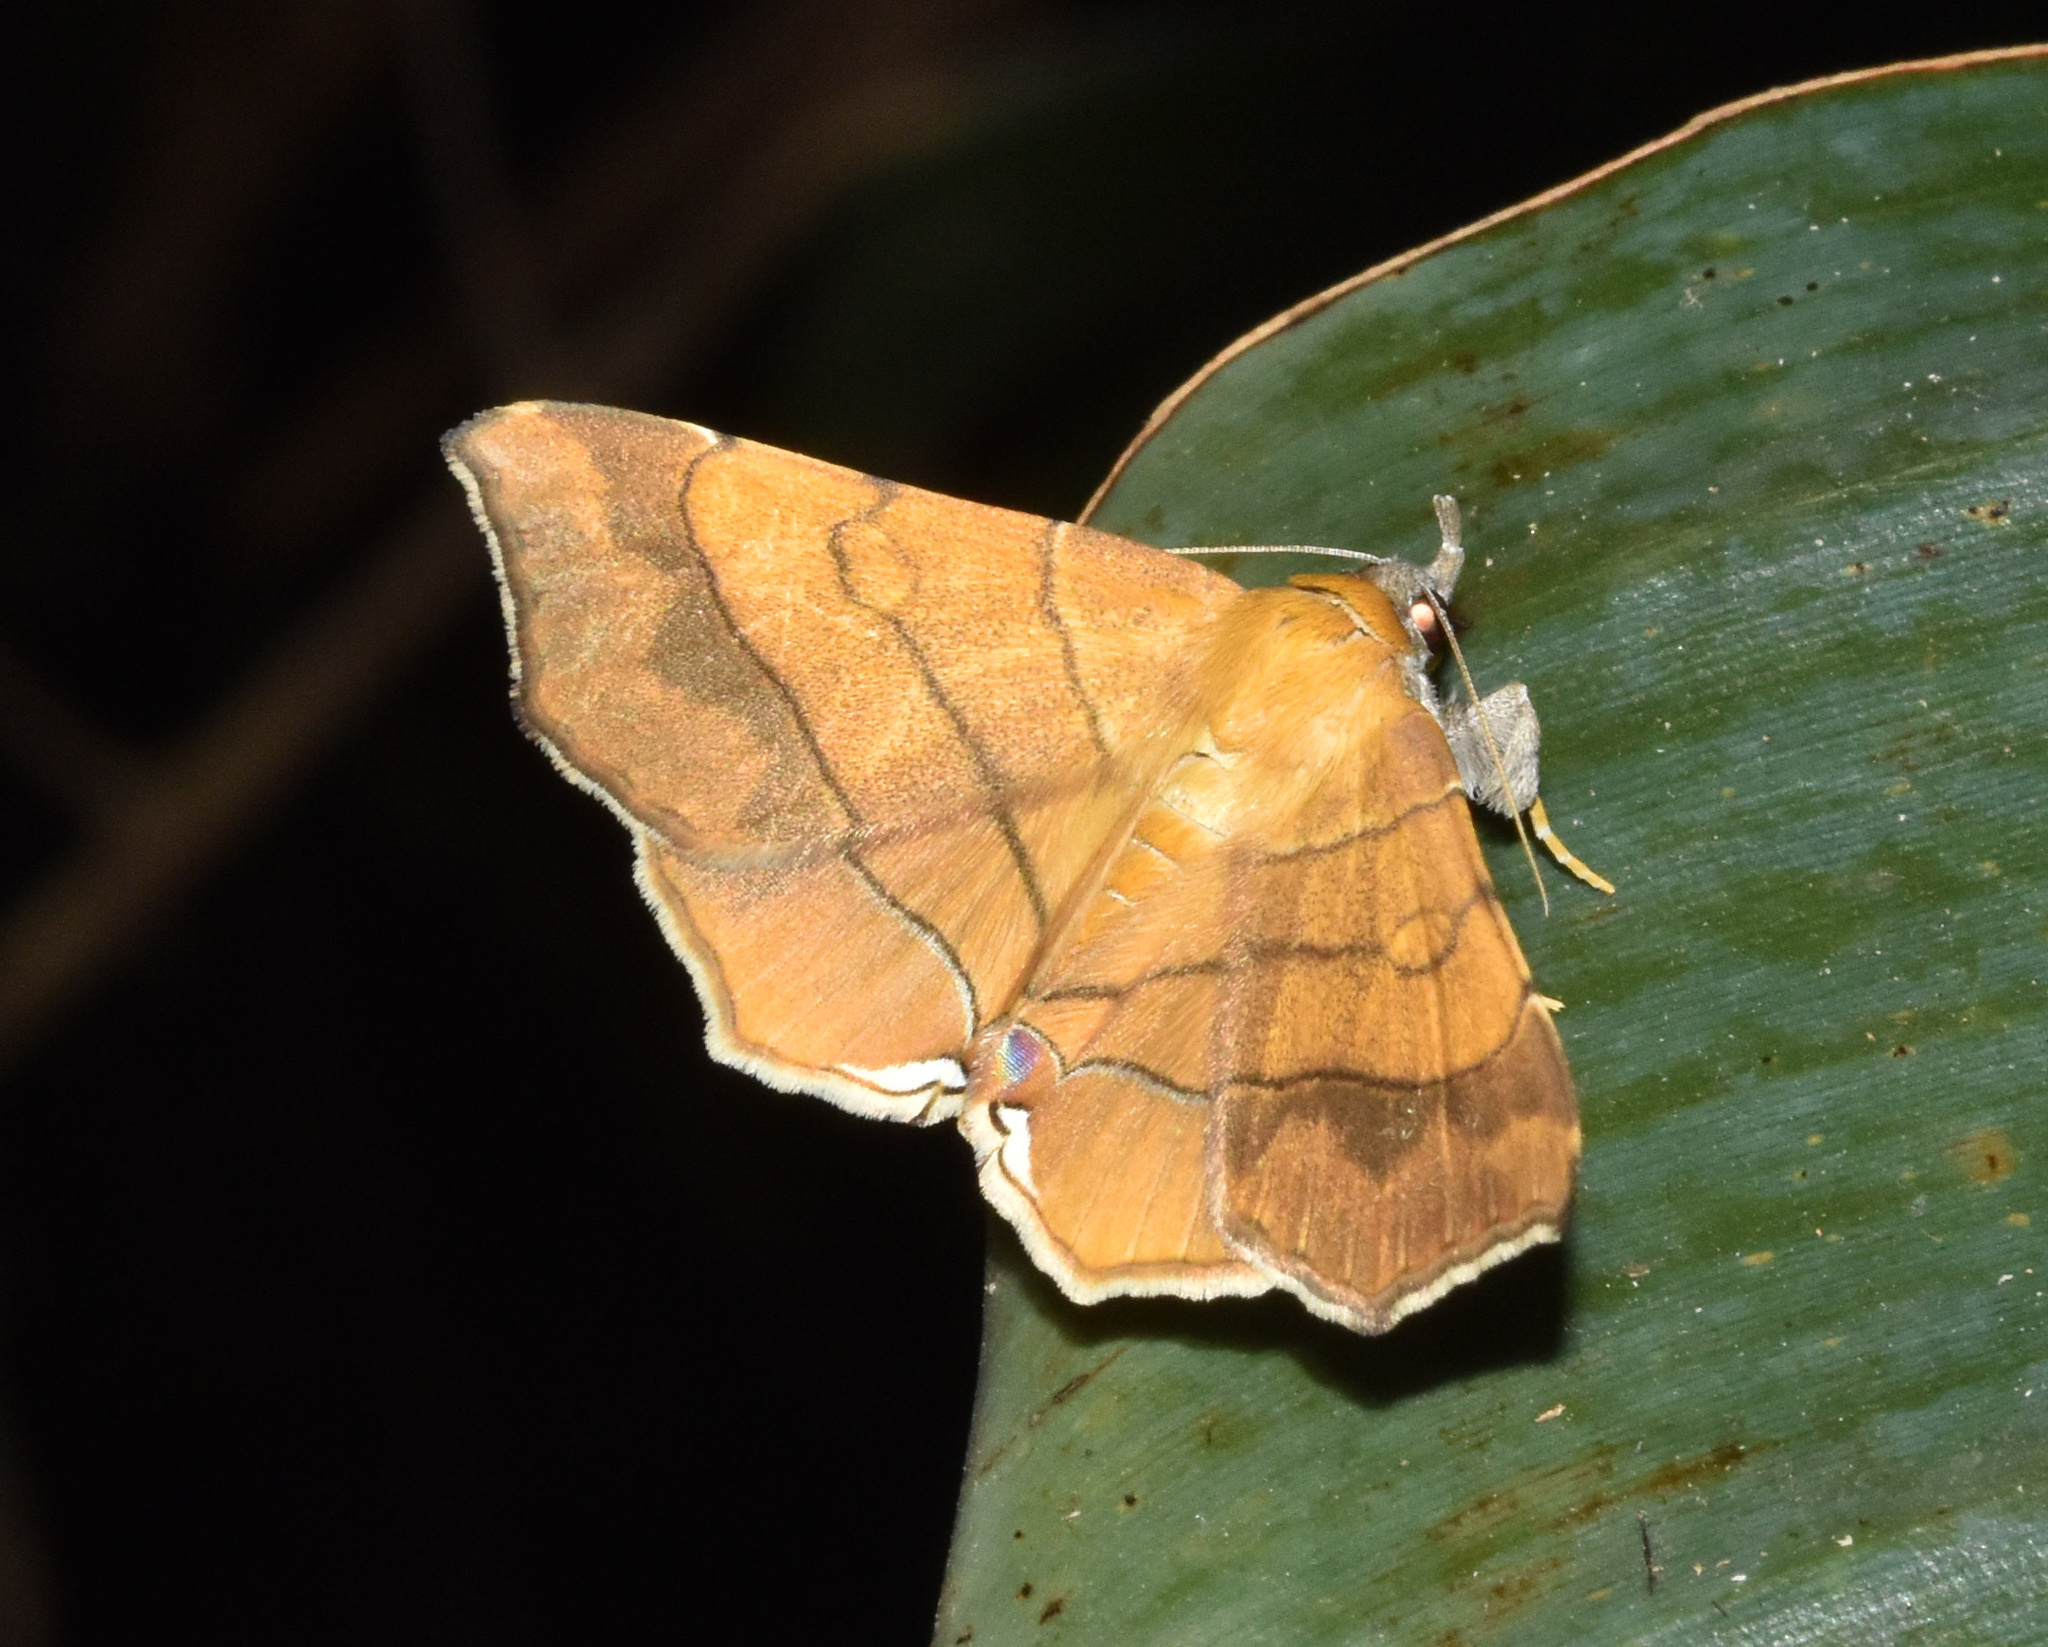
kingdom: Animalia
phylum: Arthropoda
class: Insecta
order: Lepidoptera
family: Erebidae
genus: Gracilodes
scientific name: Gracilodes caffra
